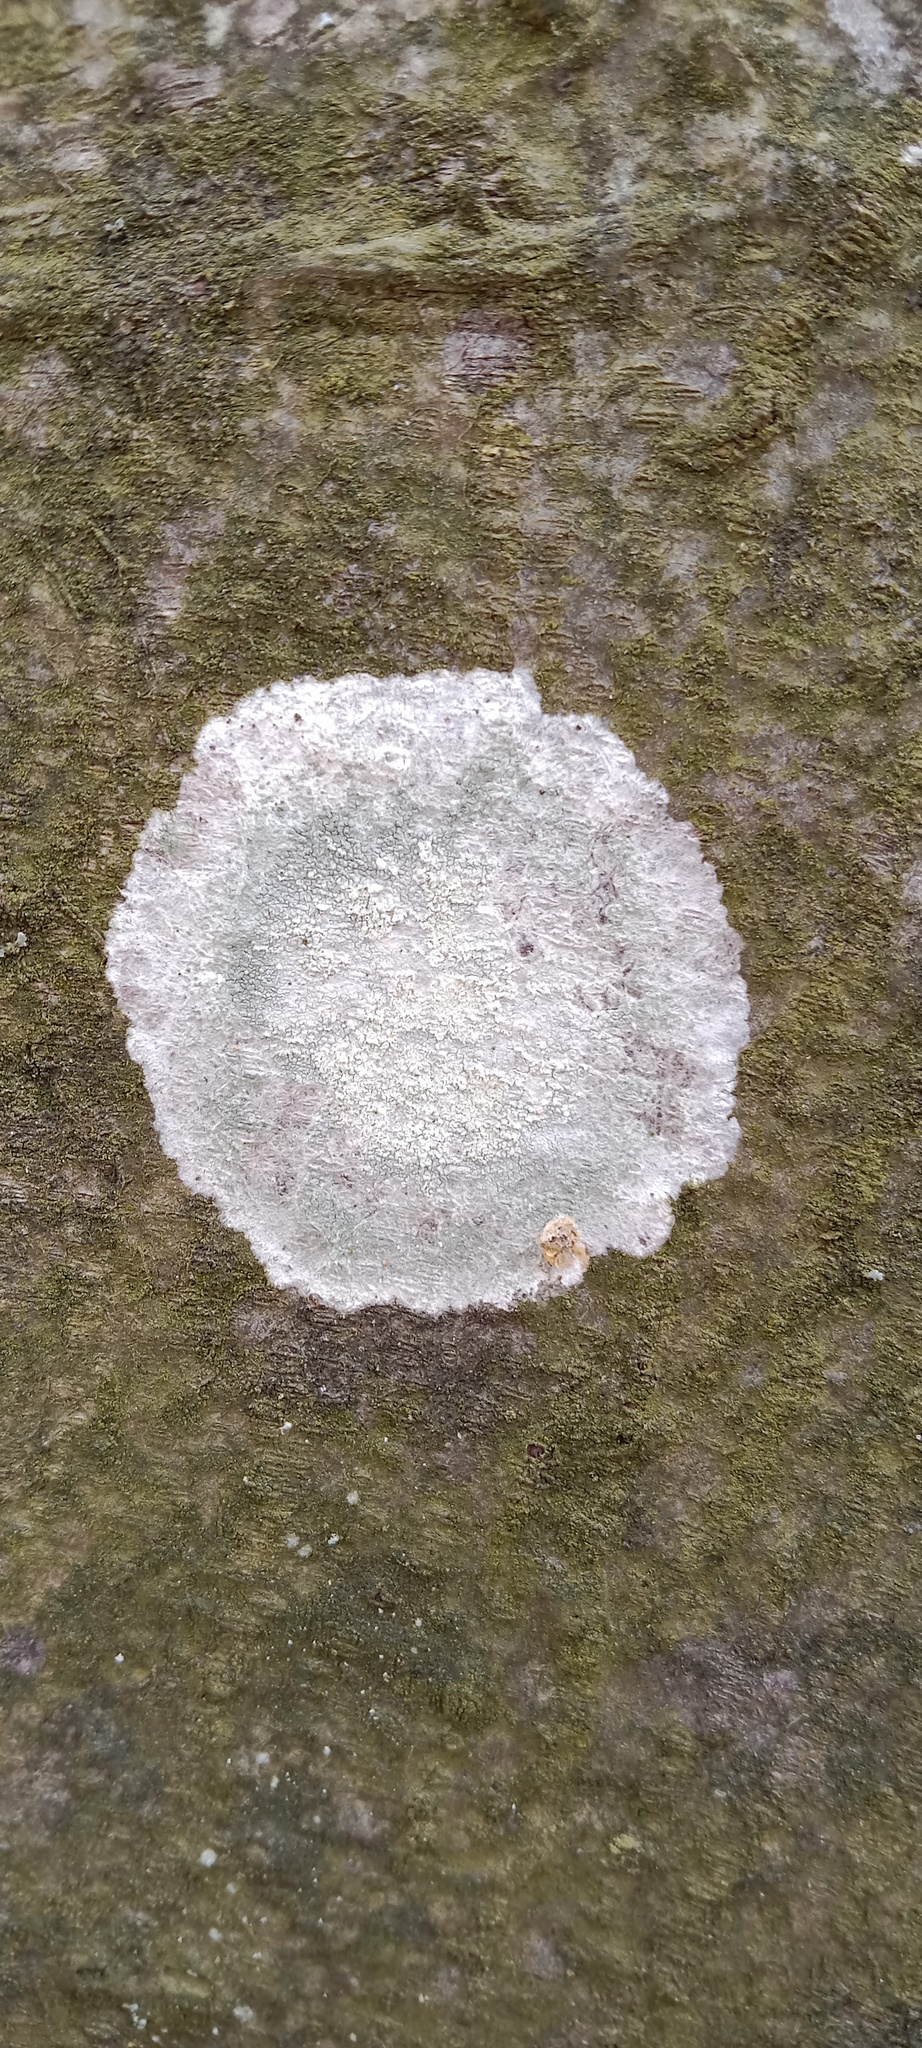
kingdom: Fungi
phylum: Ascomycota
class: Lecanoromycetes
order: Ostropales
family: Phlyctidaceae
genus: Phlyctis
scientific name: Phlyctis argena
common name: Whitewash lichen
